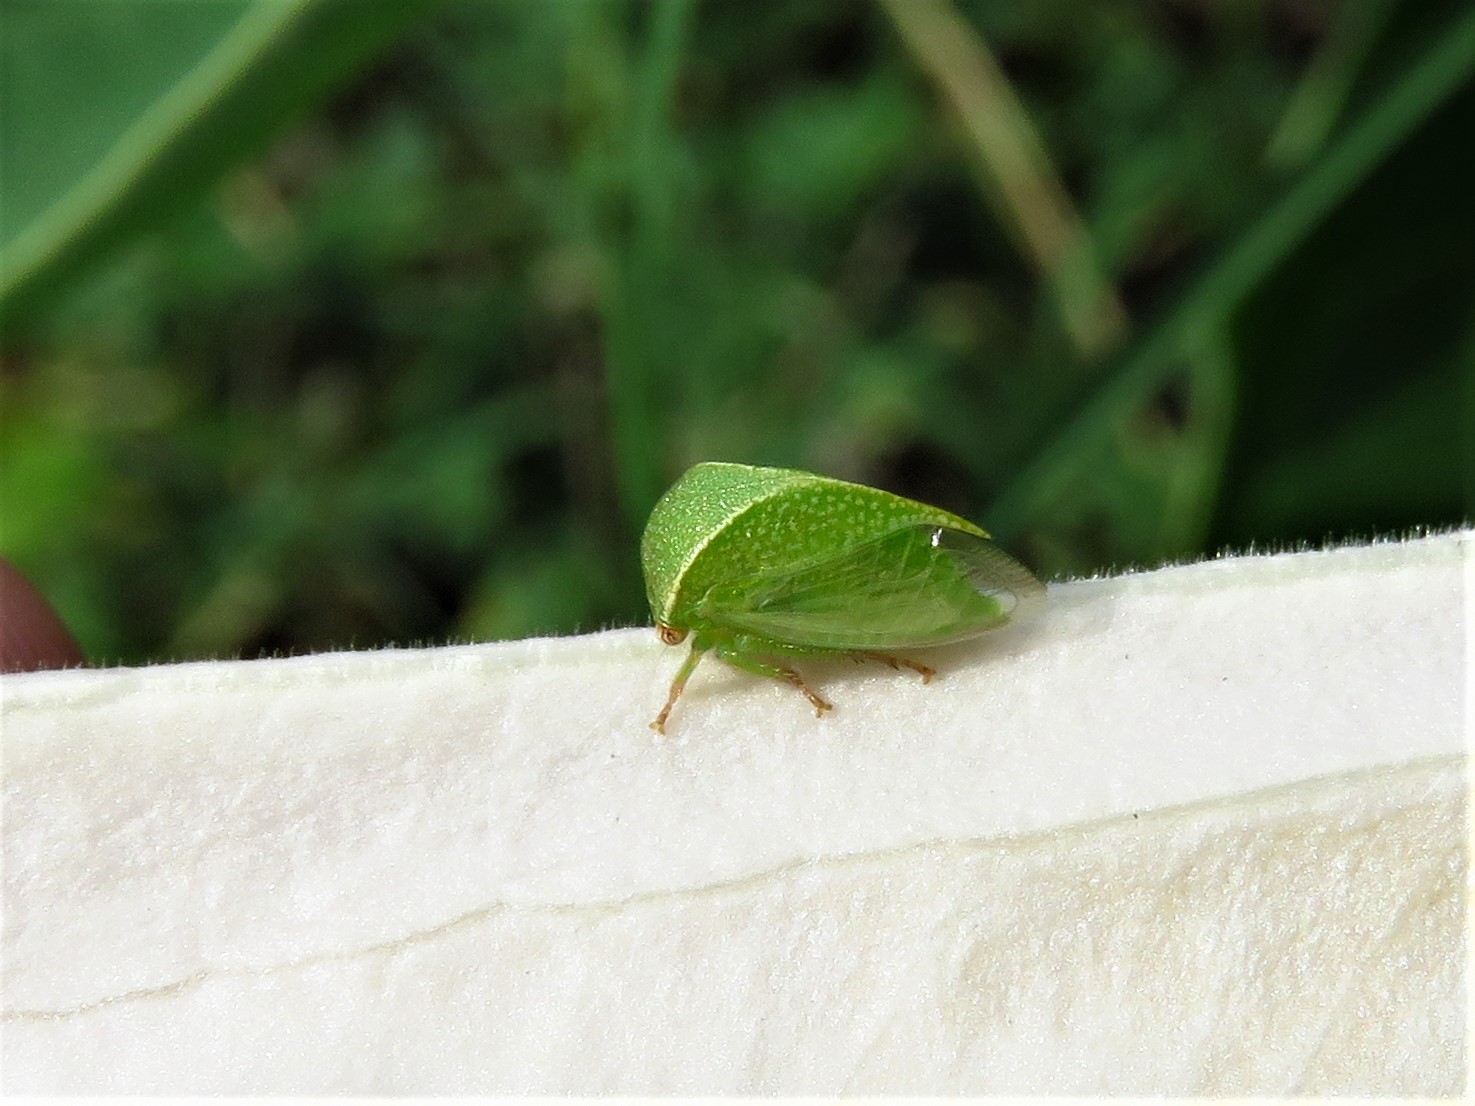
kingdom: Animalia
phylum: Arthropoda
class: Insecta
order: Hemiptera
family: Membracidae
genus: Spissistilus
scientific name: Spissistilus festina
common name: Membracid bug
